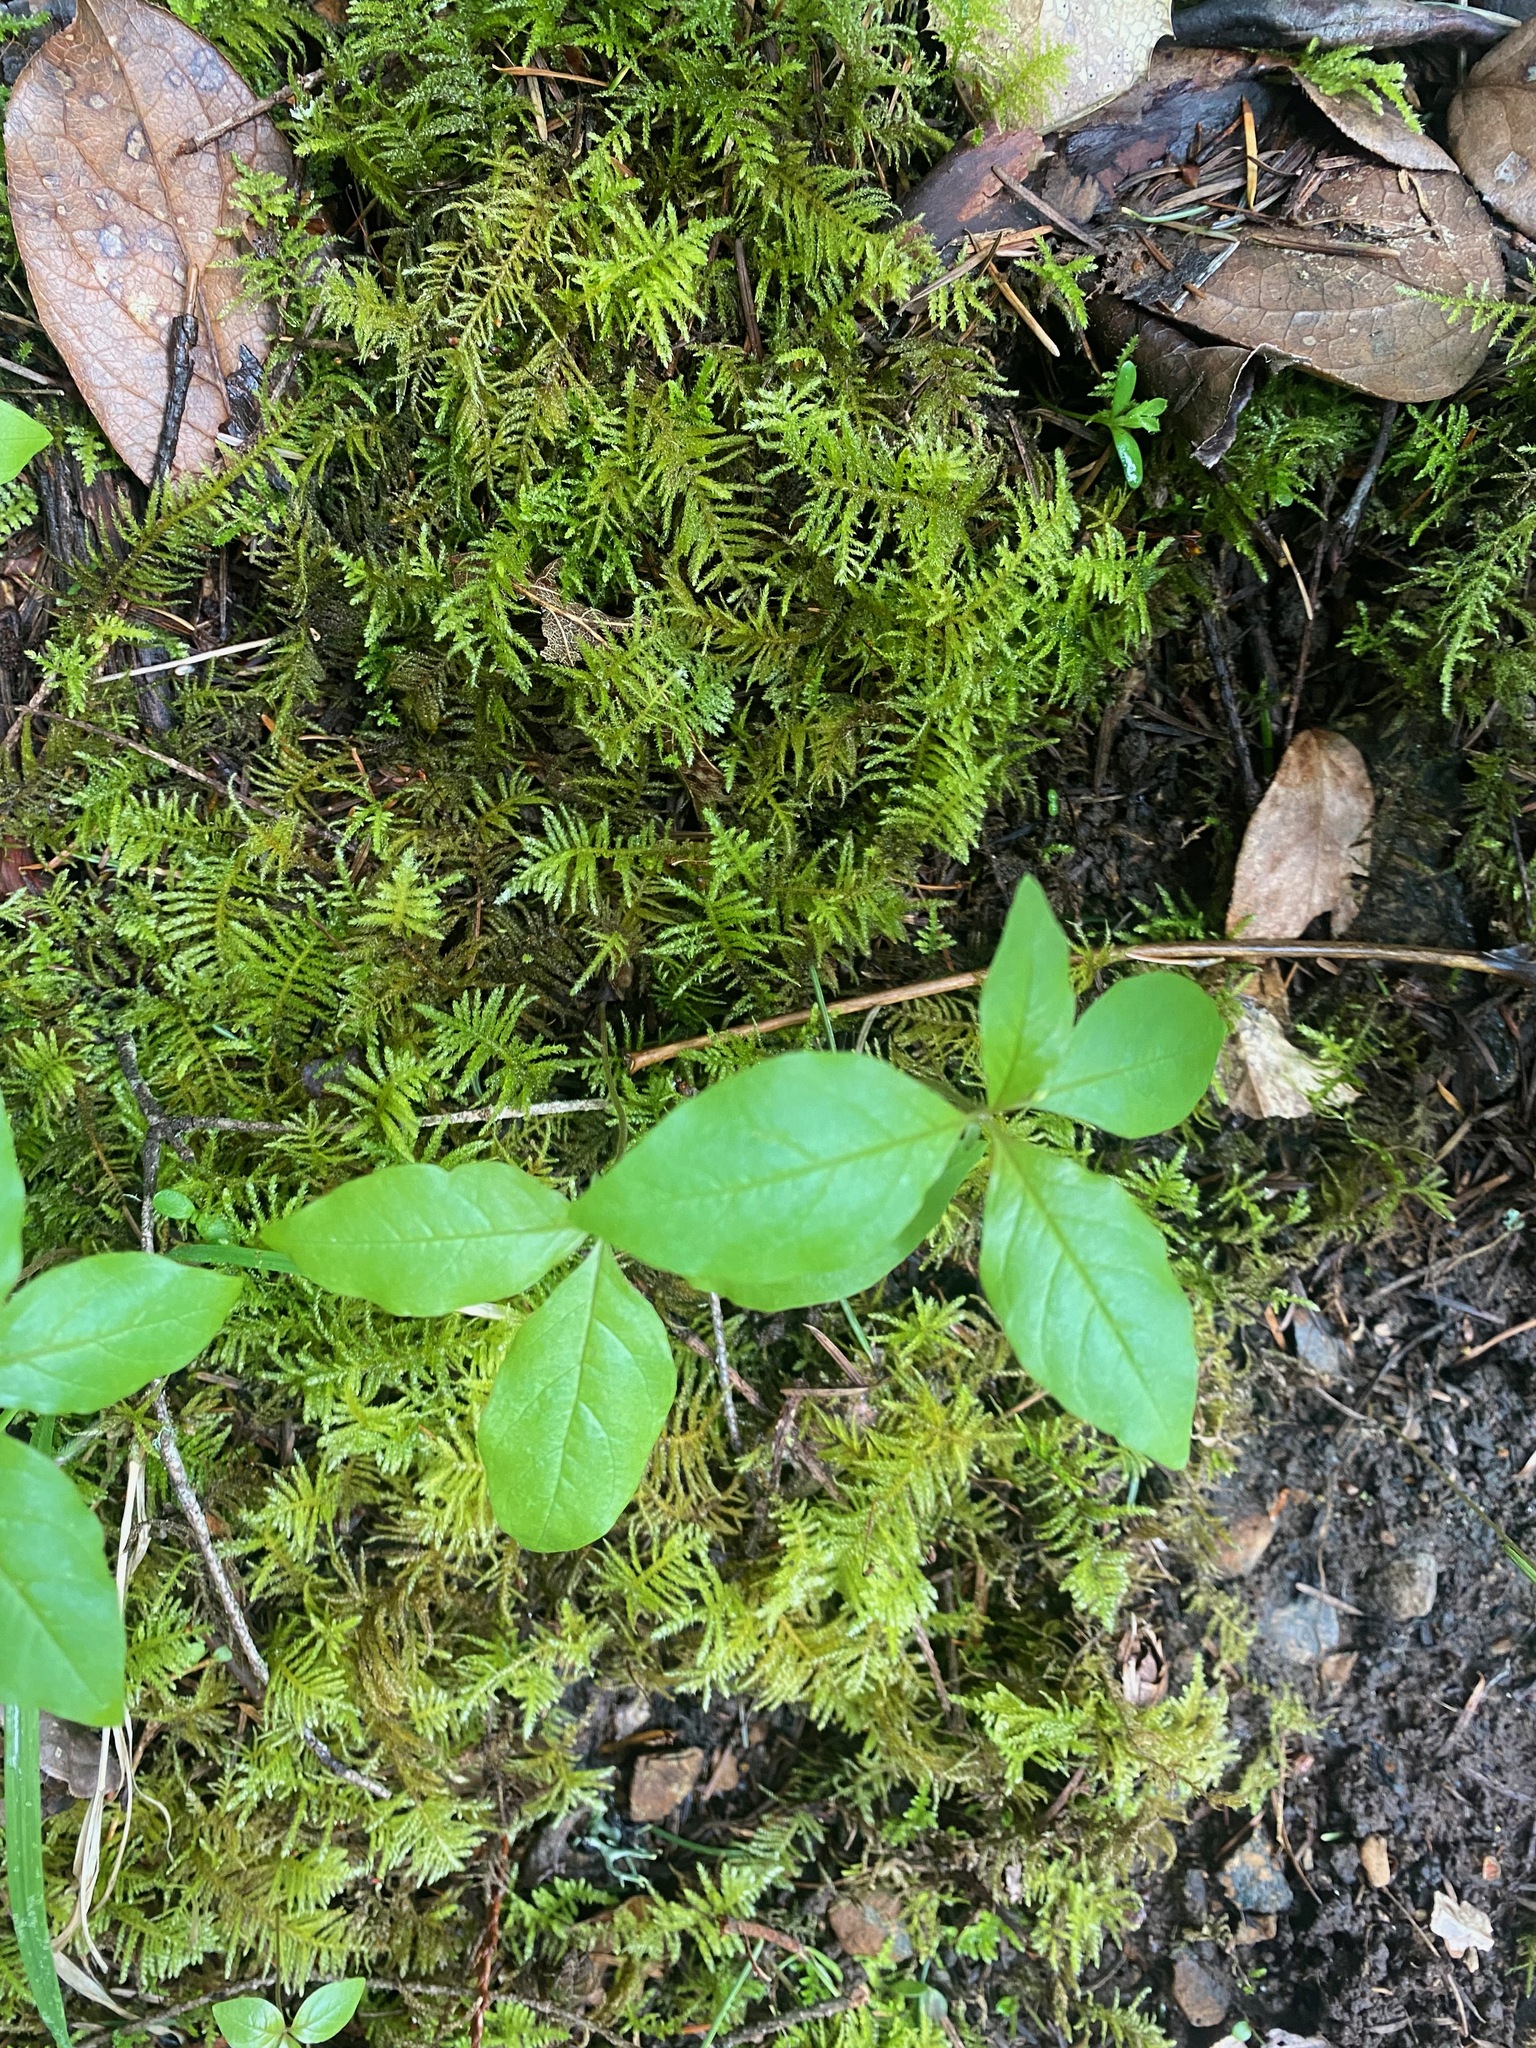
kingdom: Plantae
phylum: Tracheophyta
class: Magnoliopsida
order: Ericales
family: Primulaceae
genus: Lysimachia
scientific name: Lysimachia latifolia
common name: Pacific starflower
